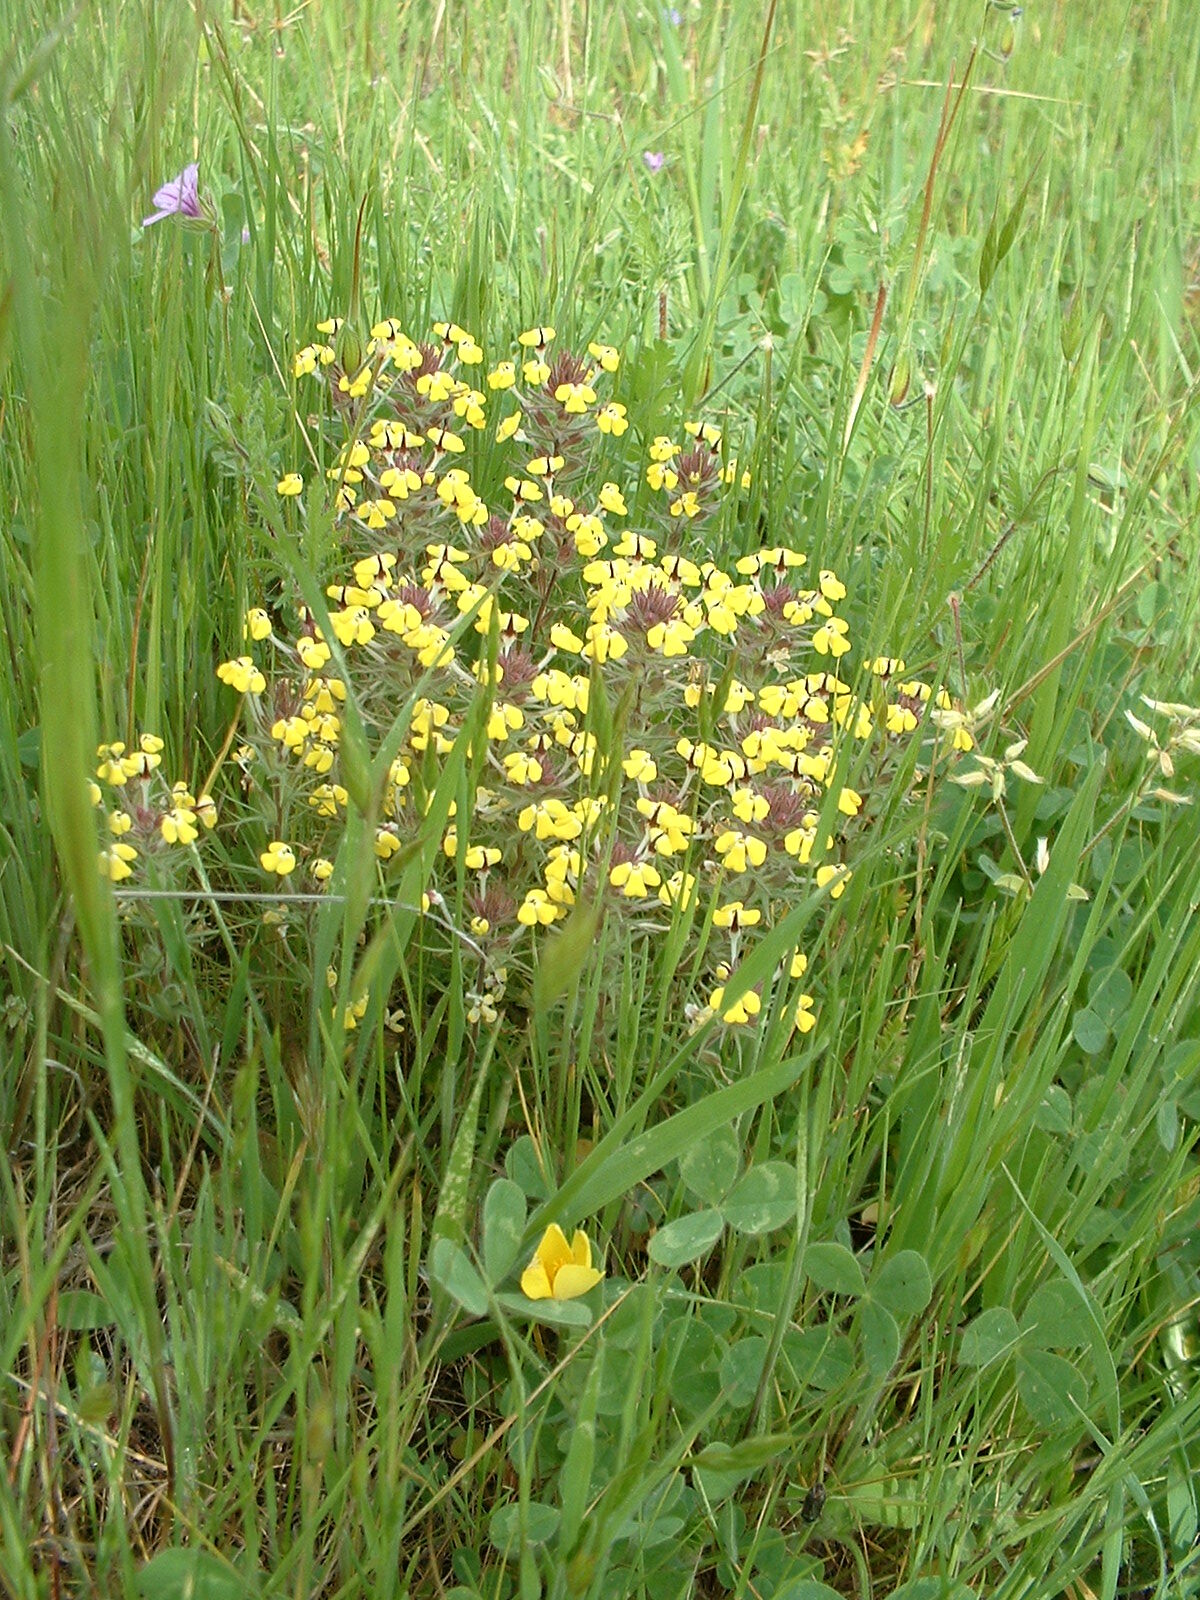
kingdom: Plantae
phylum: Tracheophyta
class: Magnoliopsida
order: Lamiales
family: Orobanchaceae
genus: Triphysaria
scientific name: Triphysaria eriantha
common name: Johnny-tuck
